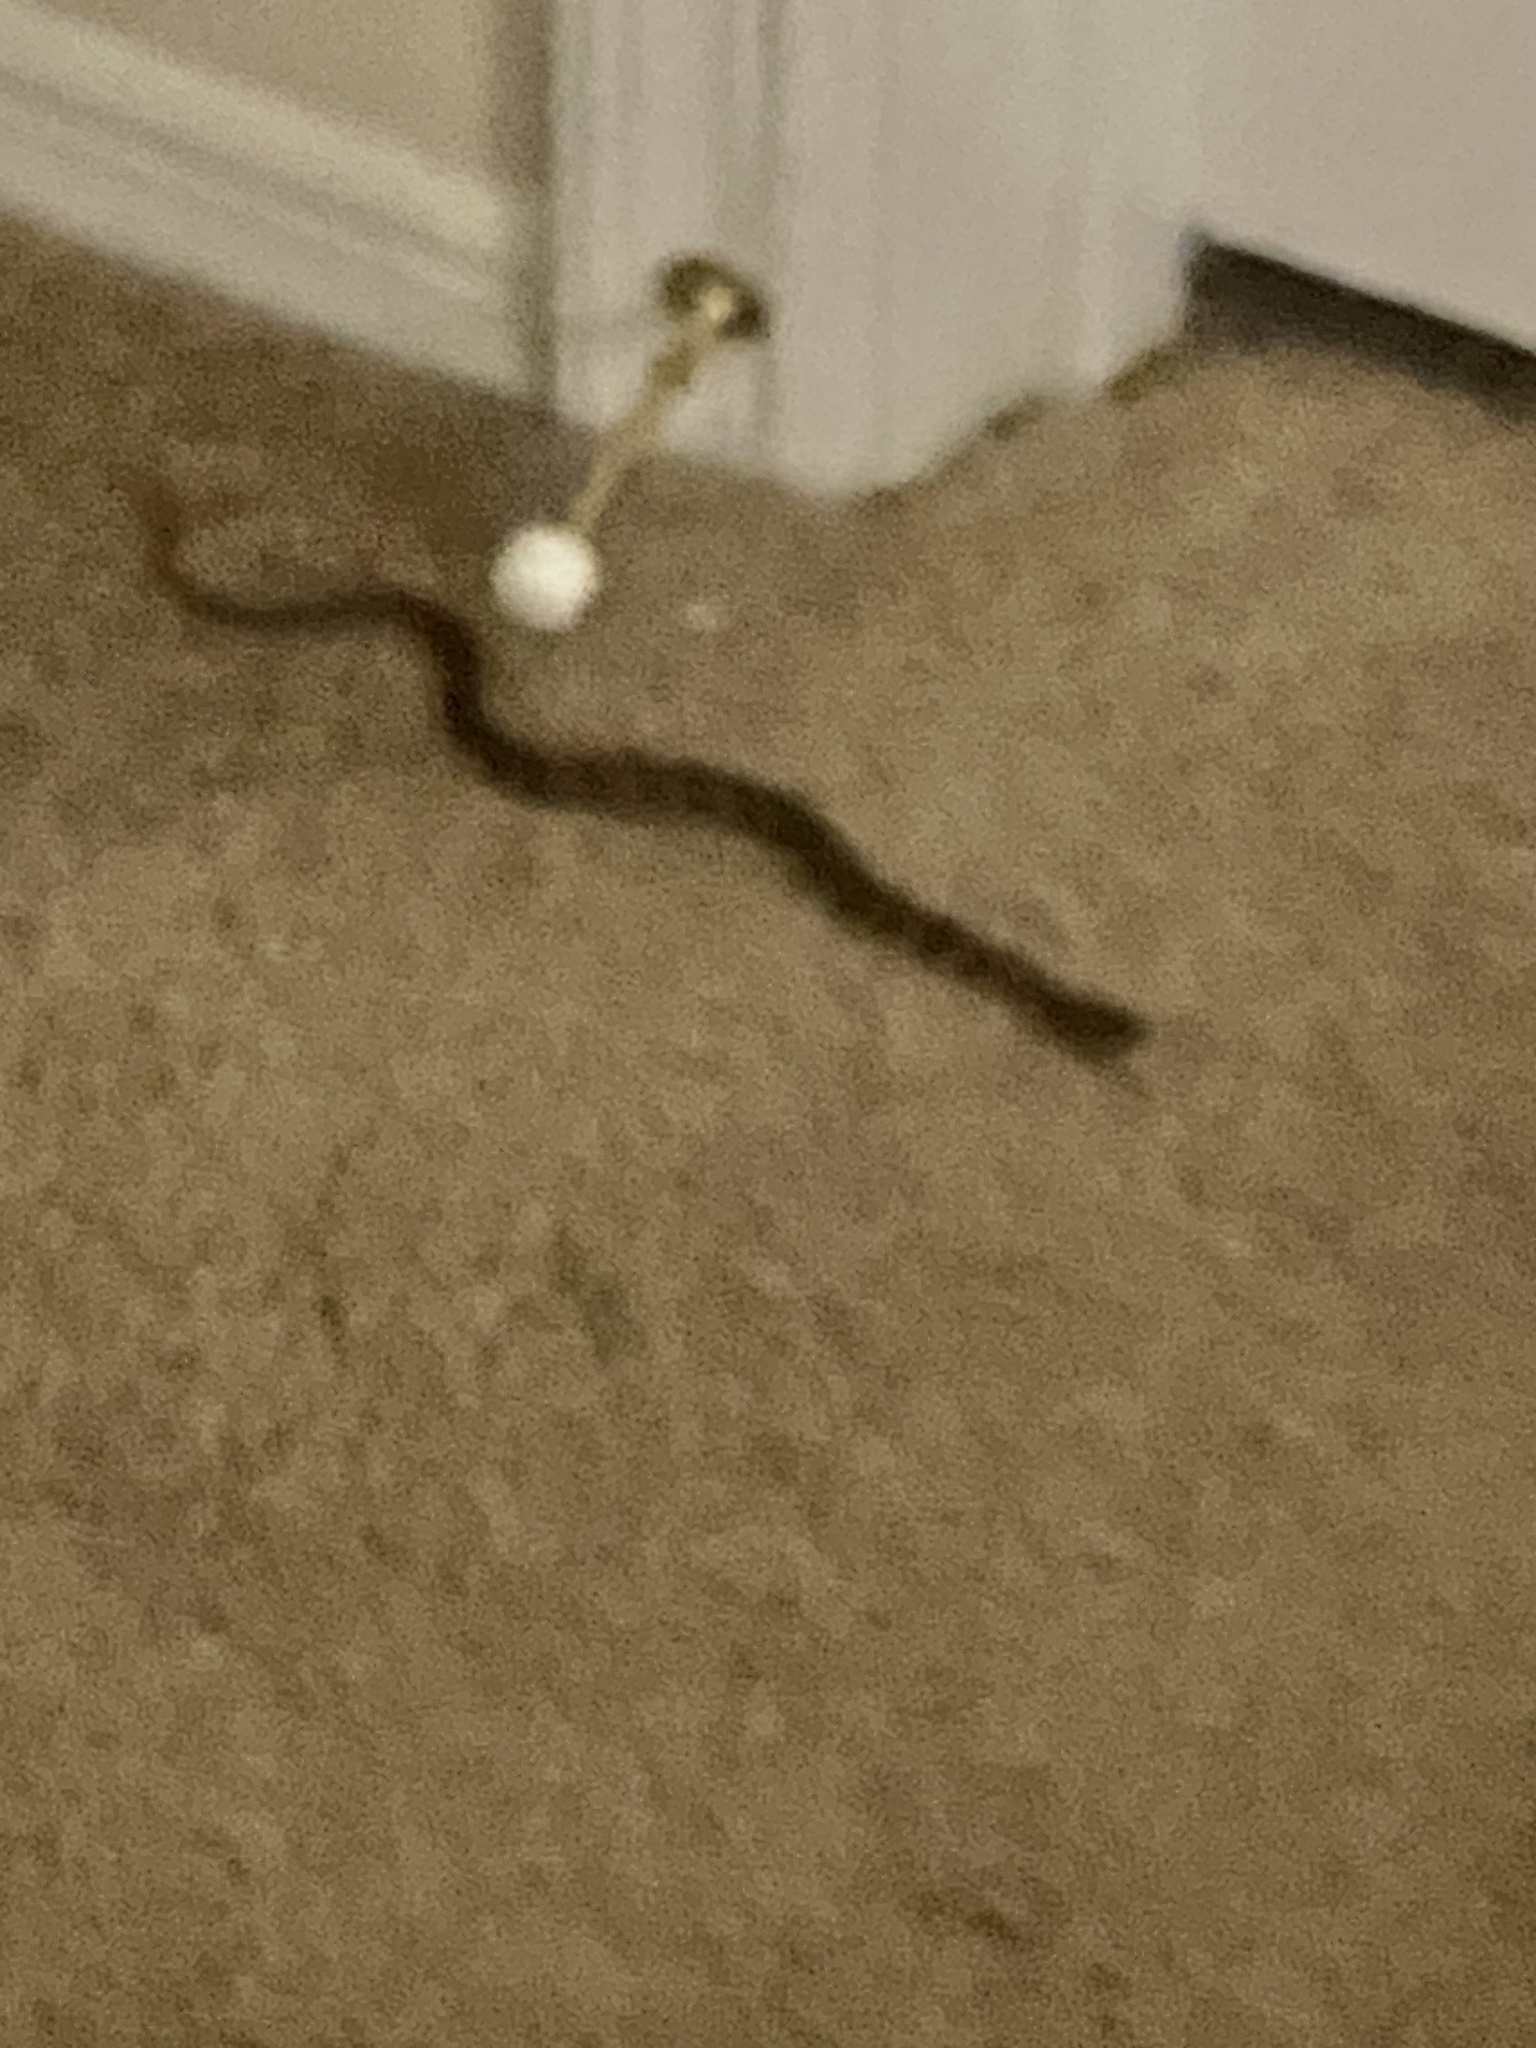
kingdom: Animalia
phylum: Chordata
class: Squamata
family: Colubridae
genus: Nerodia
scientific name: Nerodia taxispilota
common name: Brown water snake
